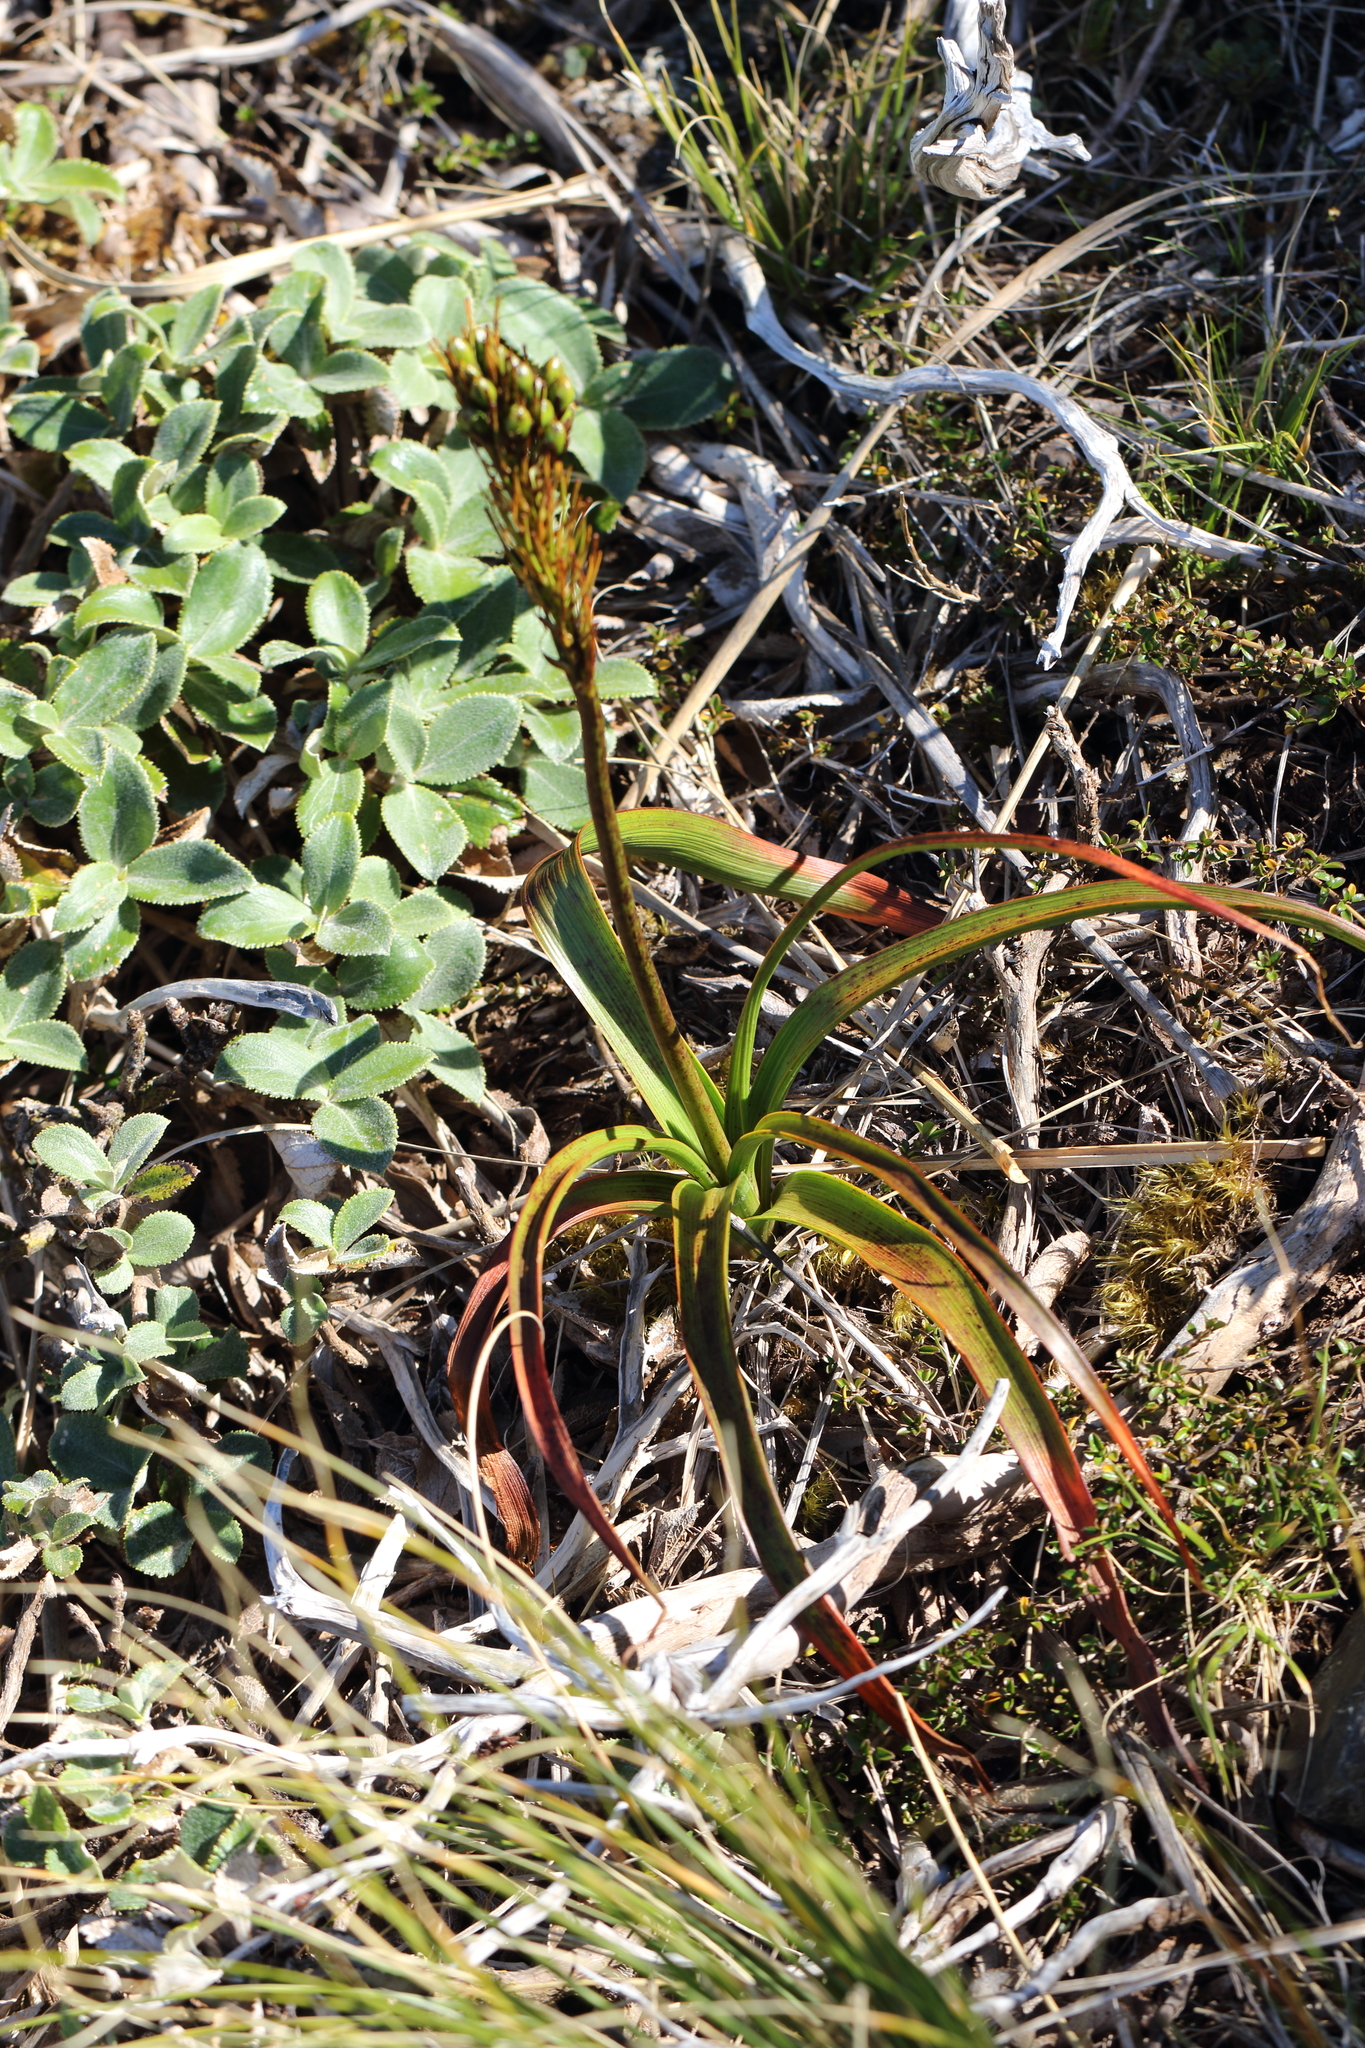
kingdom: Plantae
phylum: Tracheophyta
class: Liliopsida
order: Asparagales
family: Asphodelaceae
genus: Bulbinella
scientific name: Bulbinella hookeri
